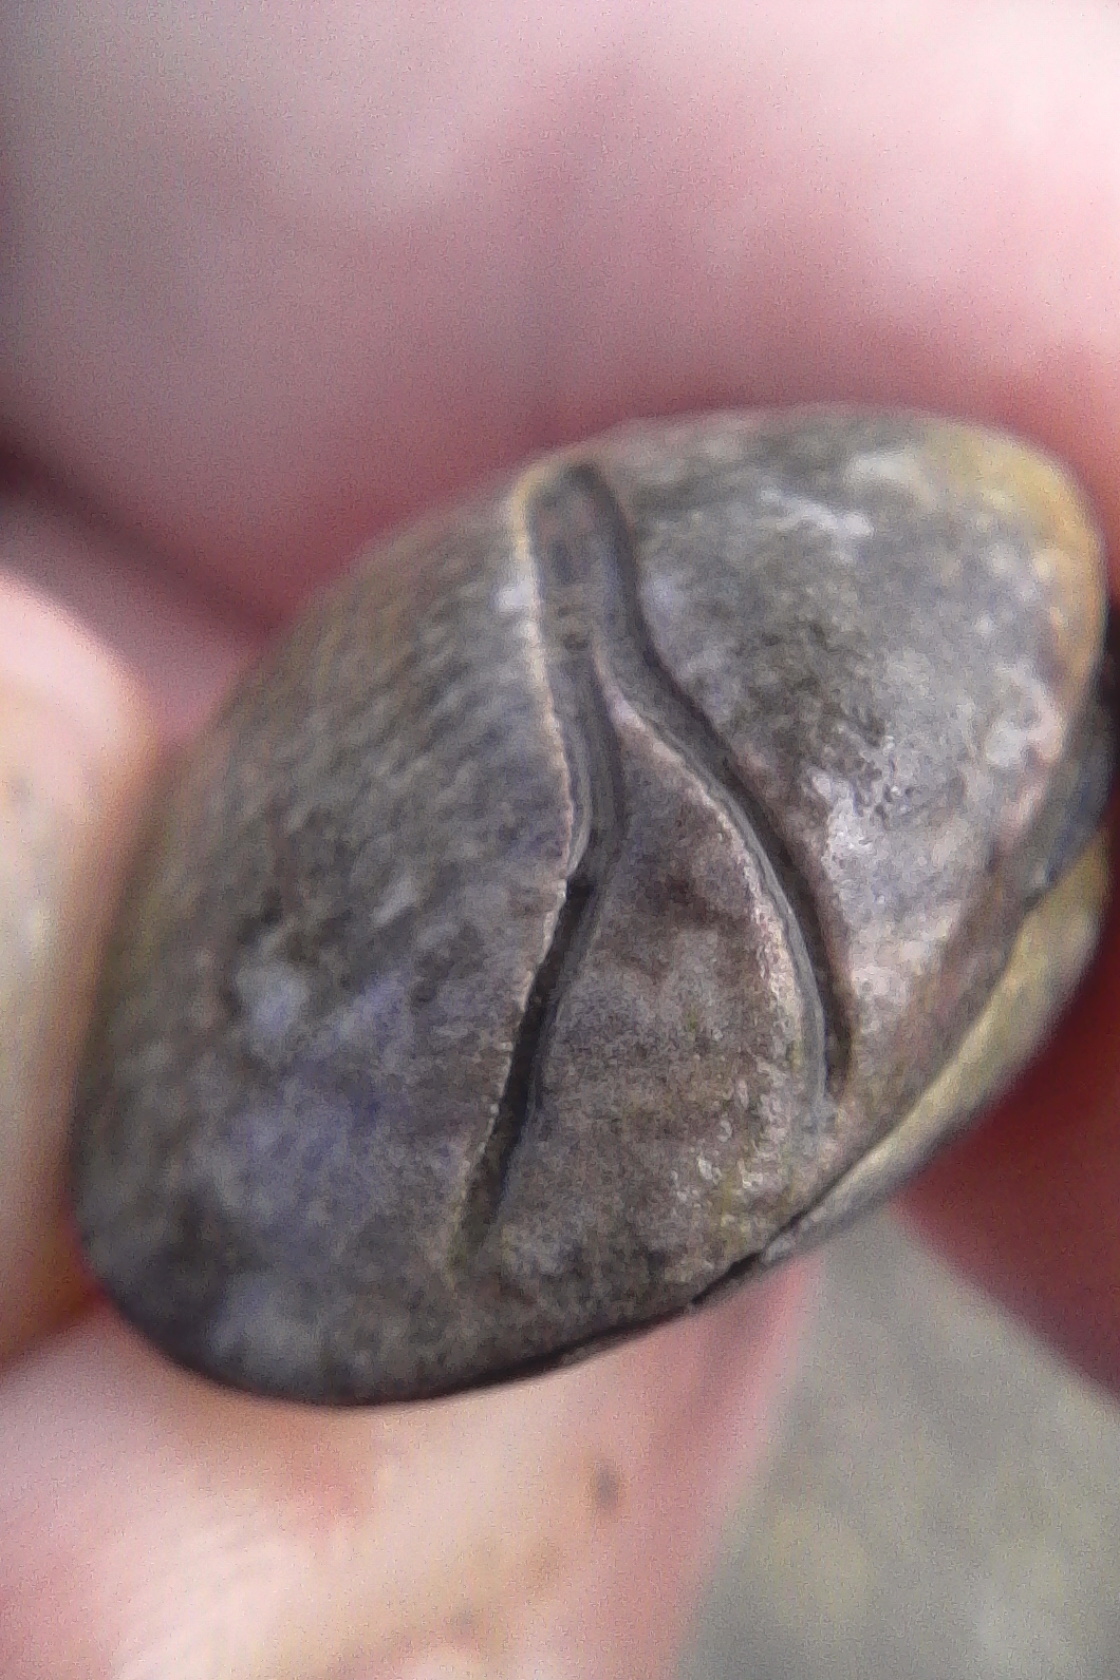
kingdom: Animalia
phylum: Annelida
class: Polychaeta
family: Spionidae
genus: Boccardia
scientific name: Boccardia acus
